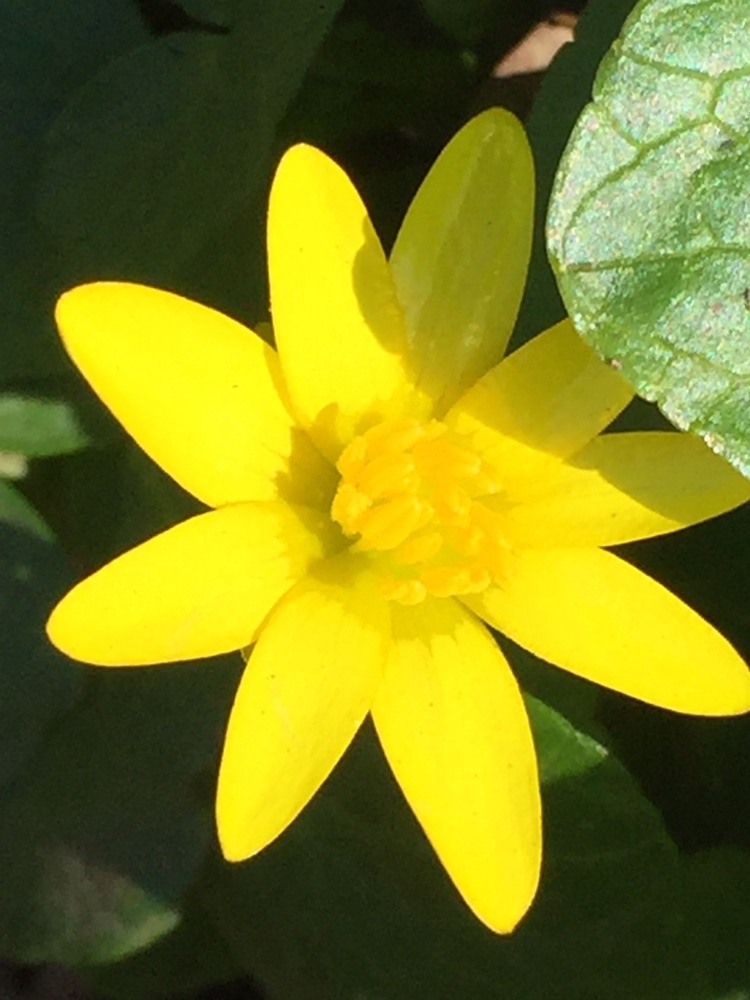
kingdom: Plantae
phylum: Tracheophyta
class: Magnoliopsida
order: Ranunculales
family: Ranunculaceae
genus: Ficaria
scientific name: Ficaria verna
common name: Lesser celandine
